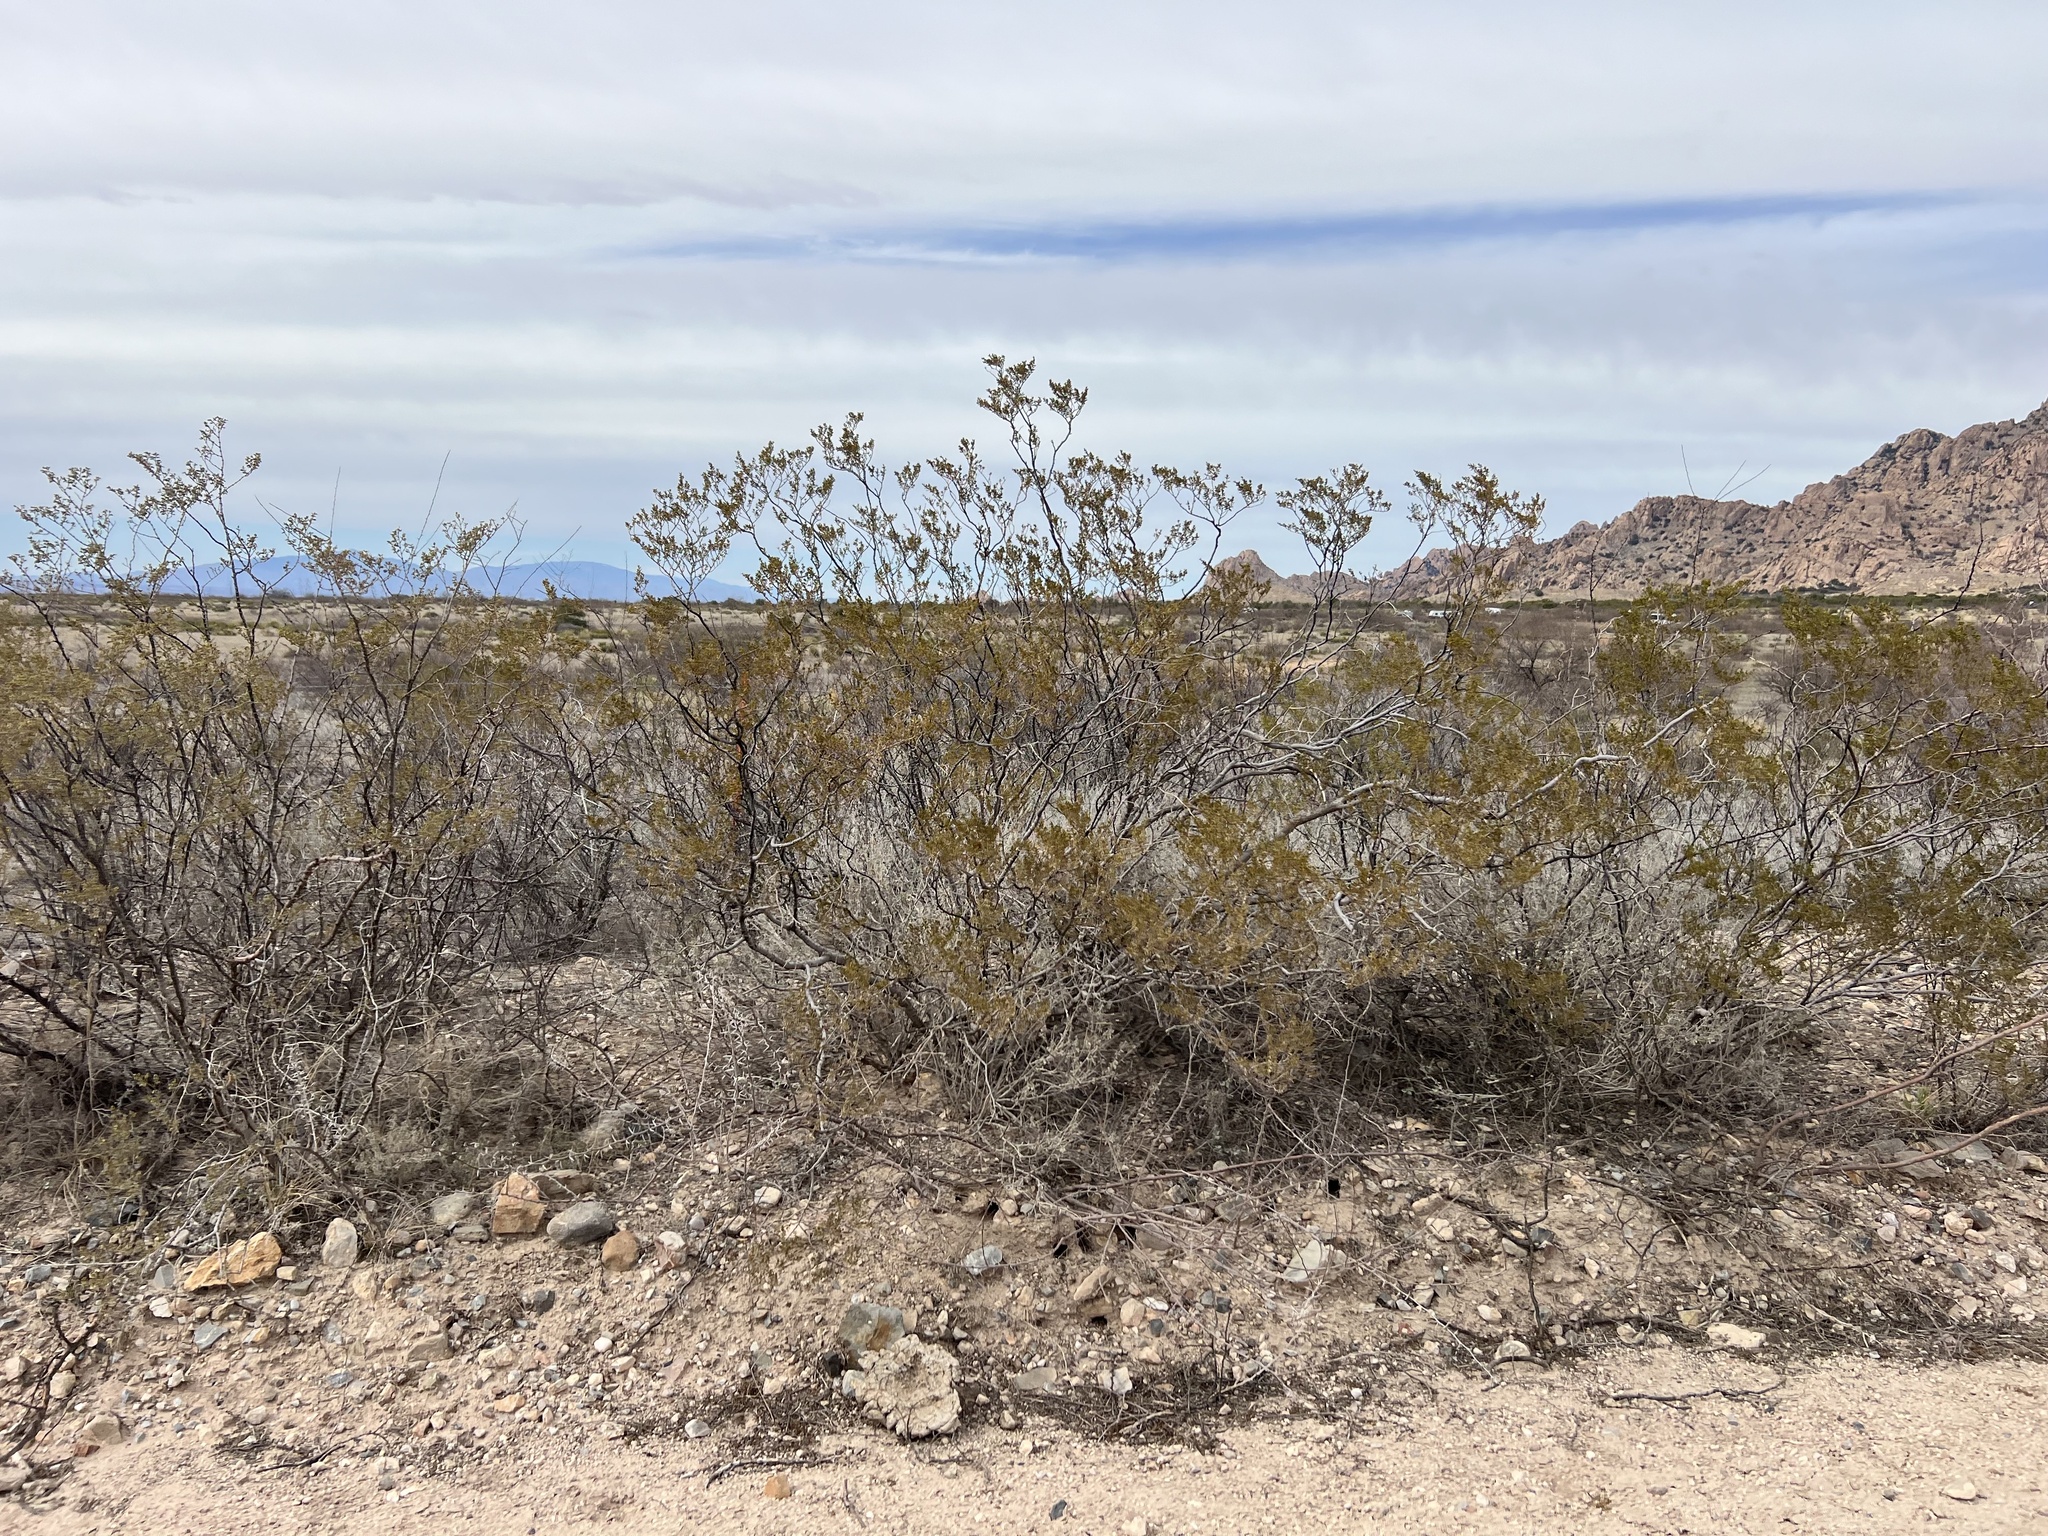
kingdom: Plantae
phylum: Tracheophyta
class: Magnoliopsida
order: Zygophyllales
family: Zygophyllaceae
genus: Larrea
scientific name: Larrea tridentata
